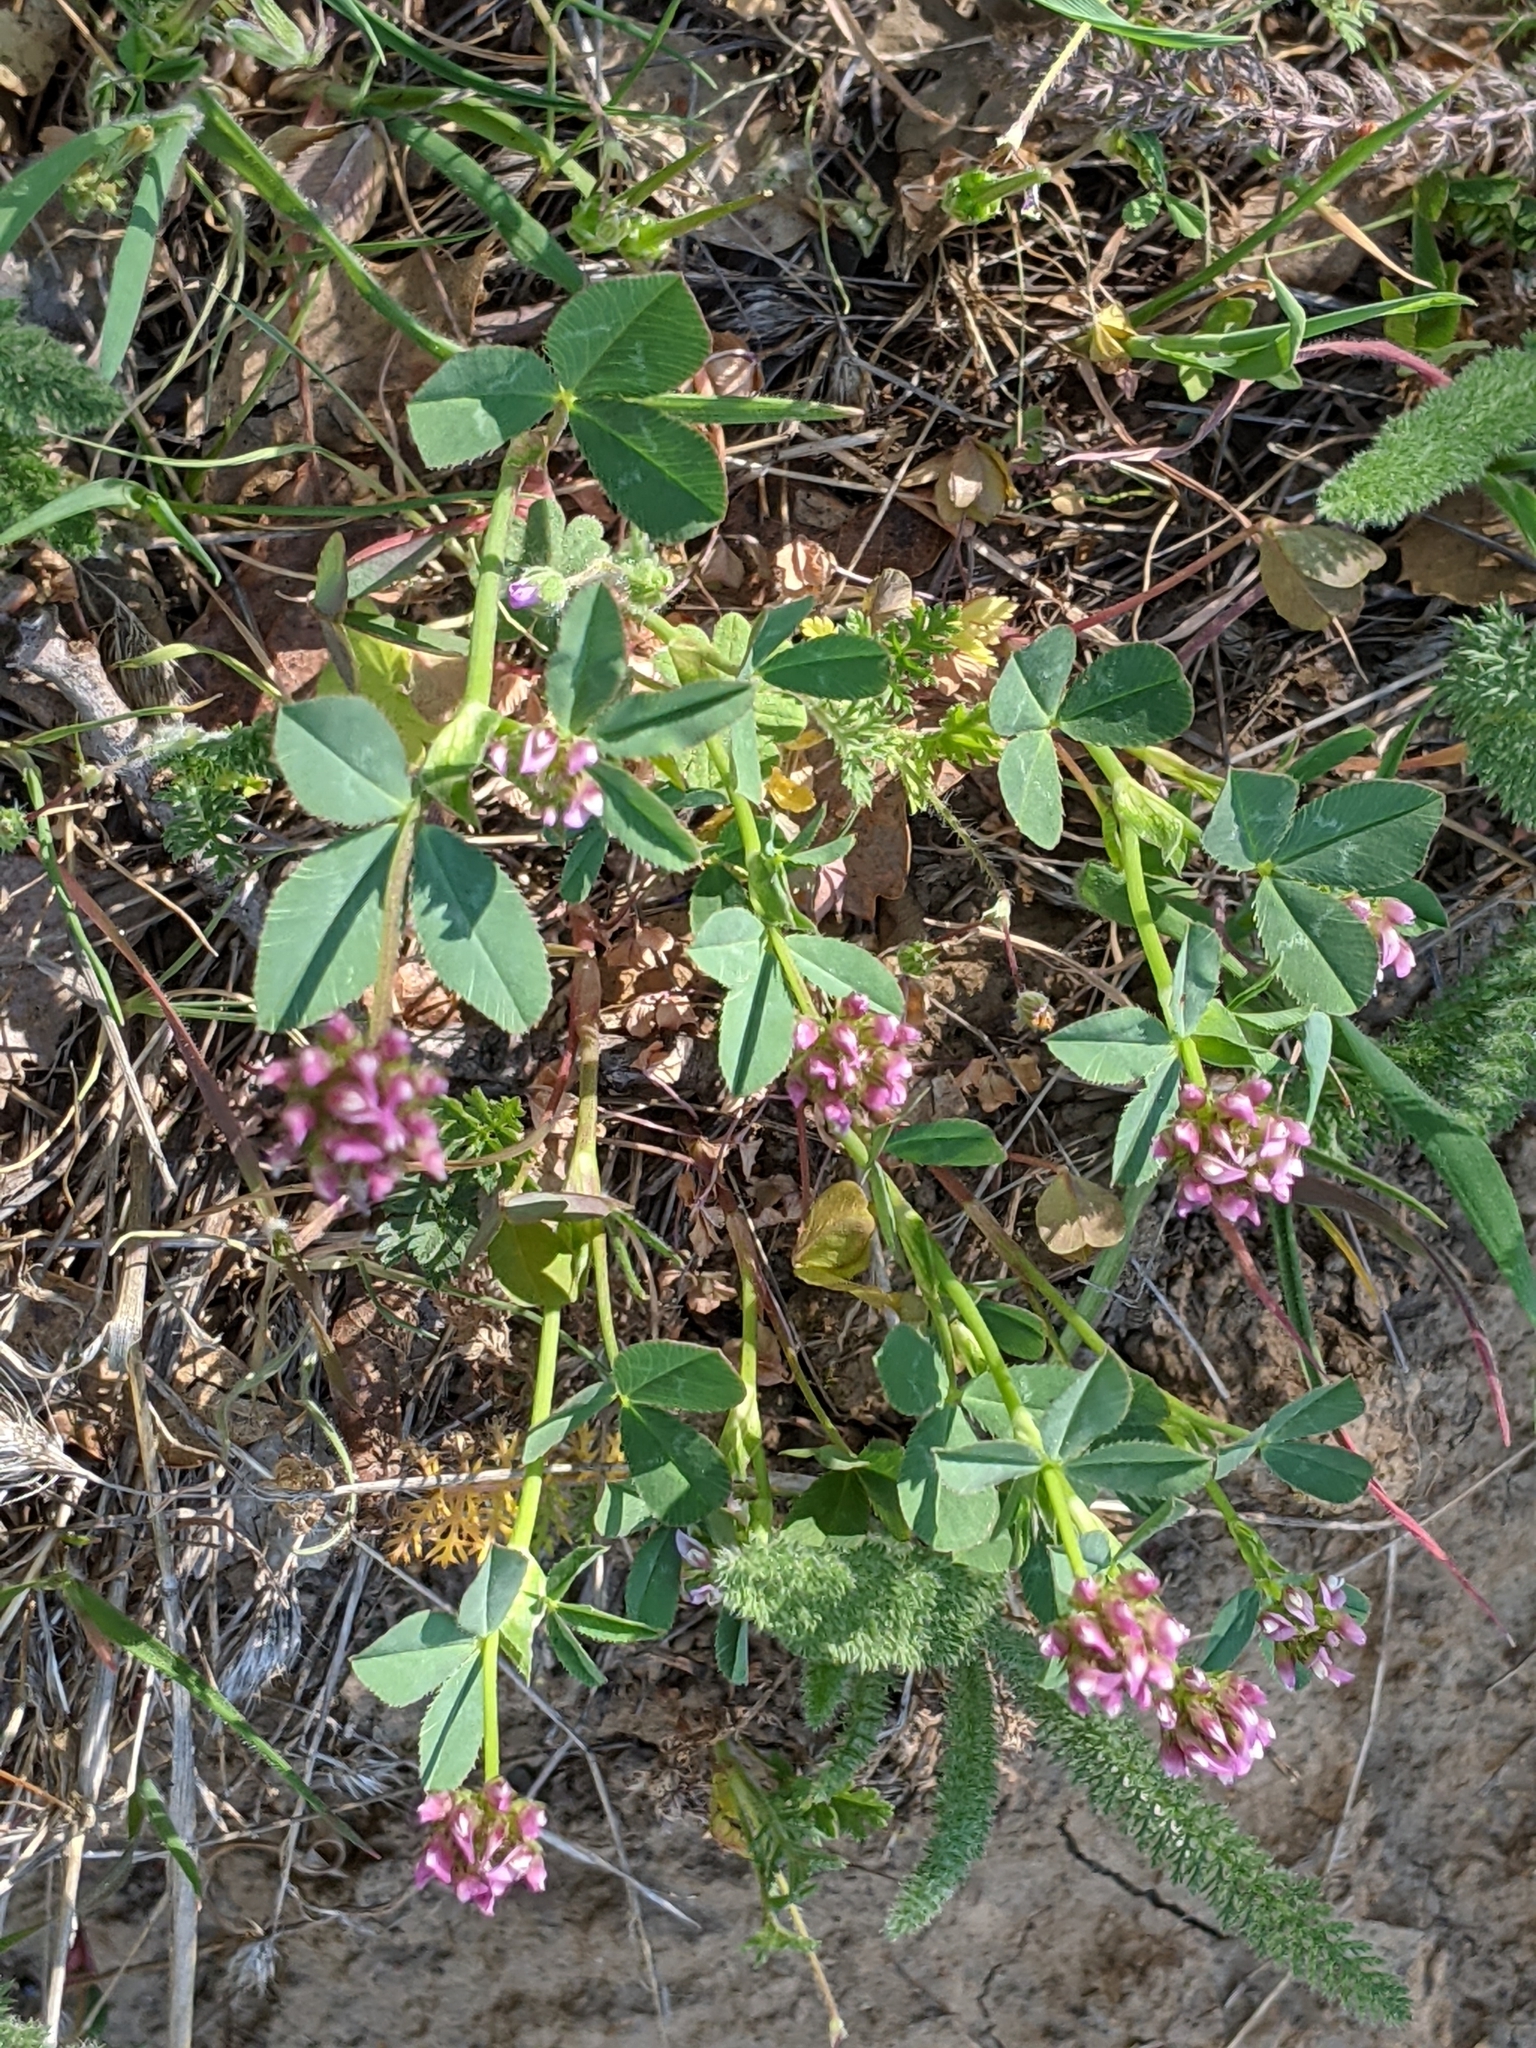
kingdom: Plantae
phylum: Tracheophyta
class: Magnoliopsida
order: Fabales
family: Fabaceae
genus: Trifolium
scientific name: Trifolium ciliolatum
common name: Foothill clover
